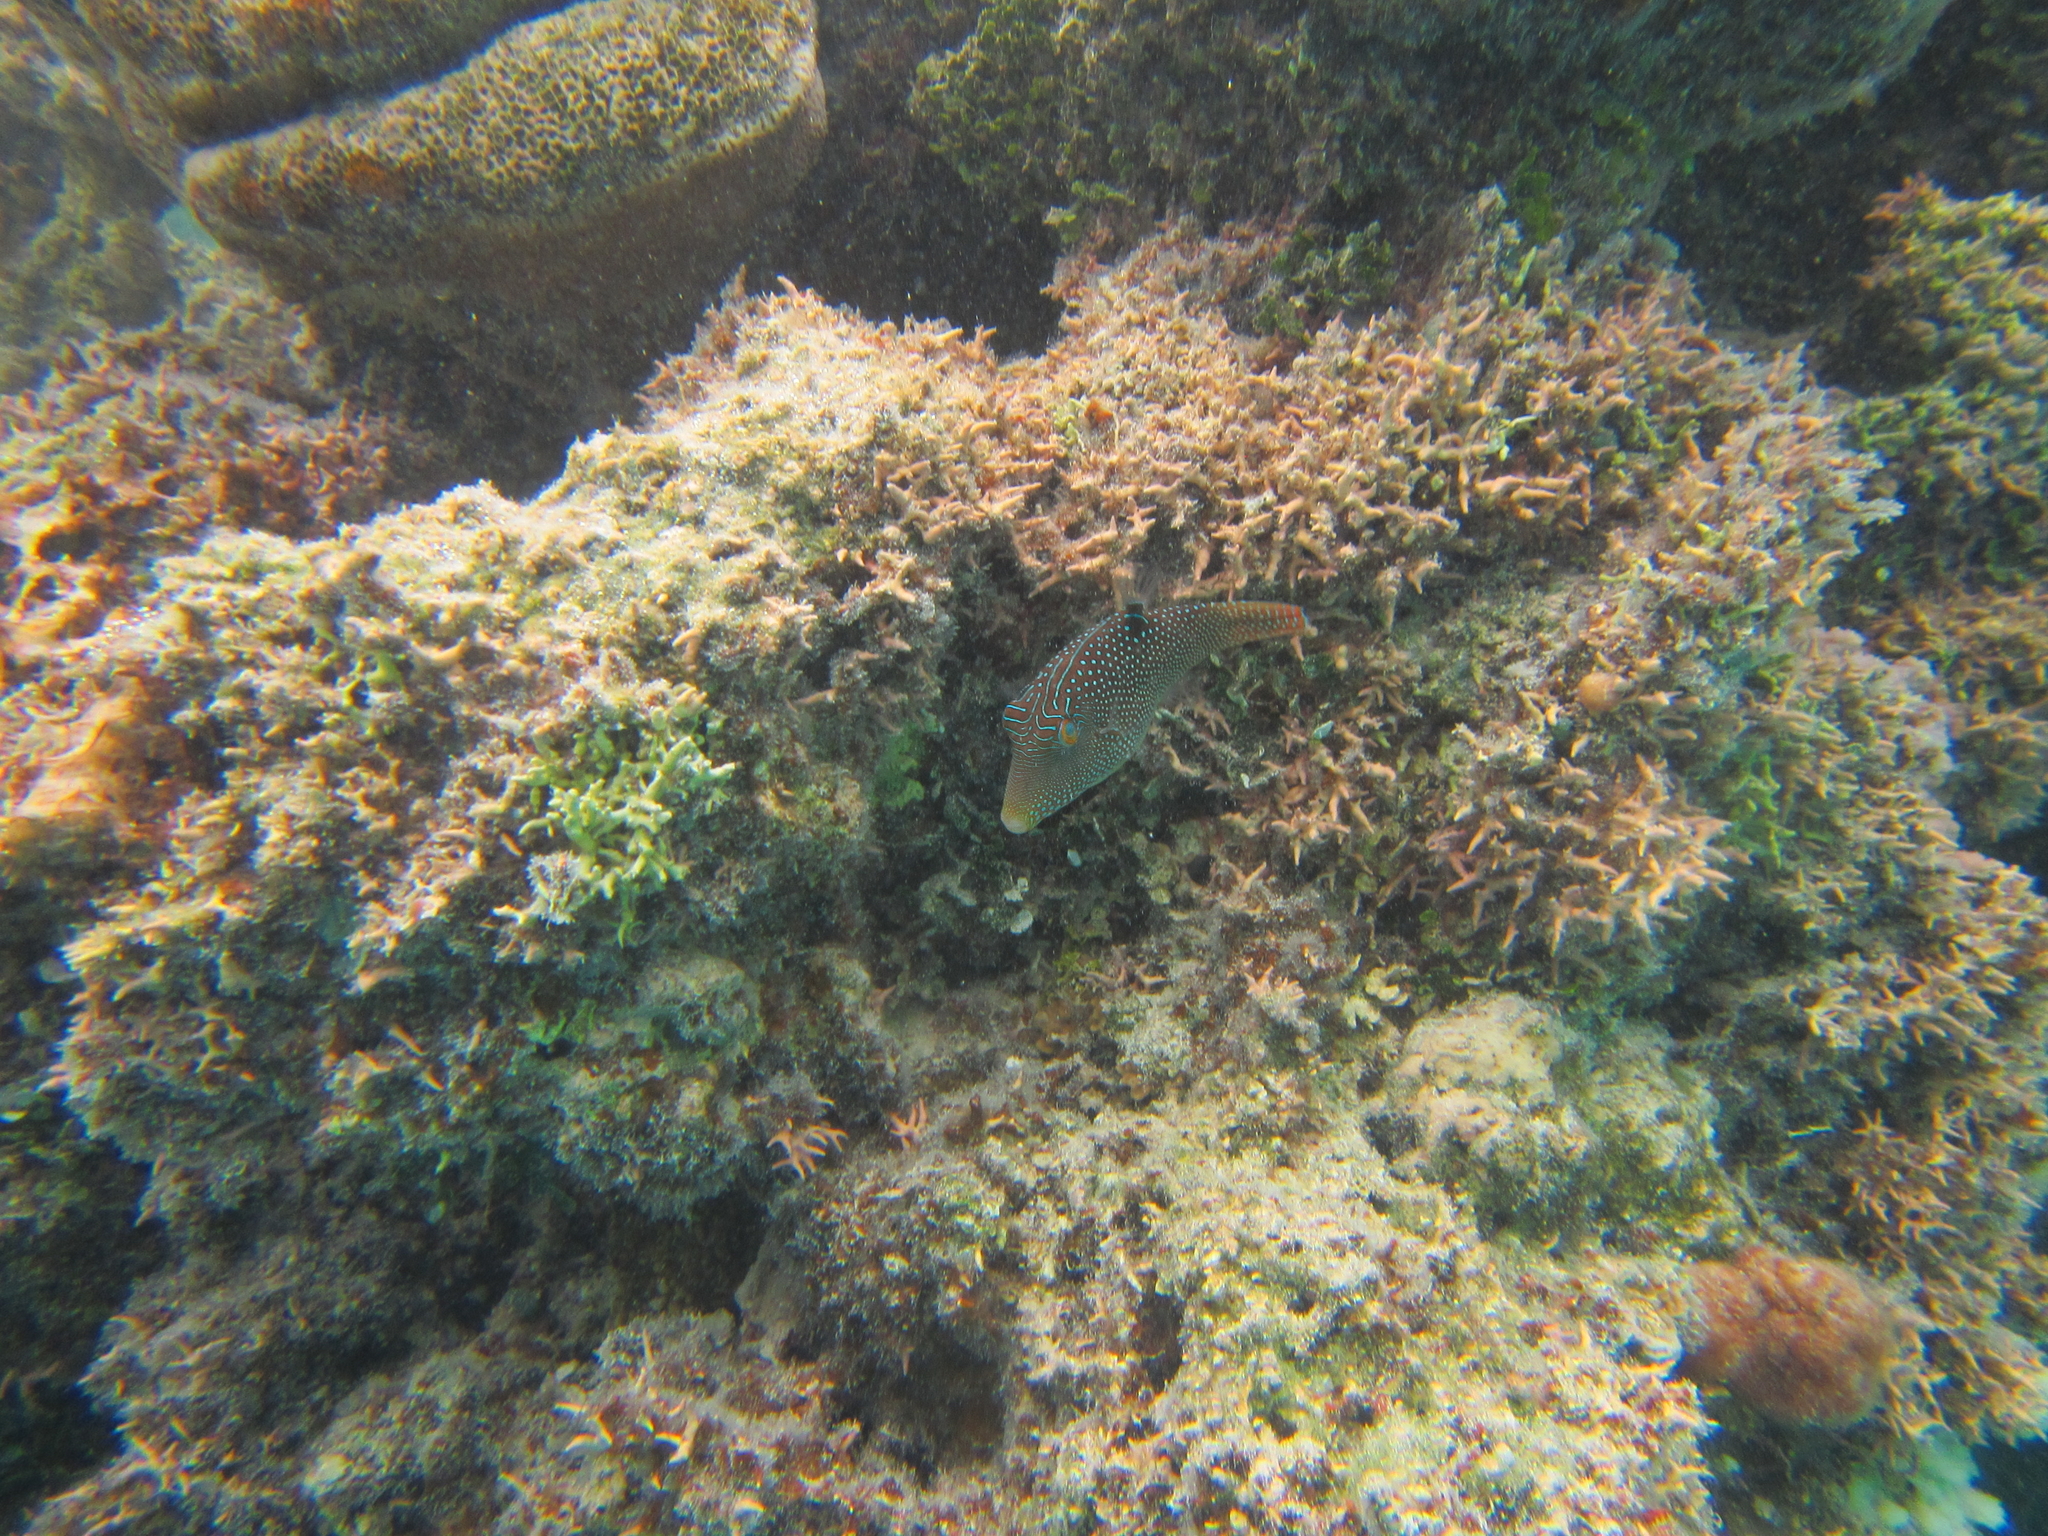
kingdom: Animalia
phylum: Chordata
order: Tetraodontiformes
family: Tetraodontidae
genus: Canthigaster
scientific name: Canthigaster solandri
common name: False-eye toby
